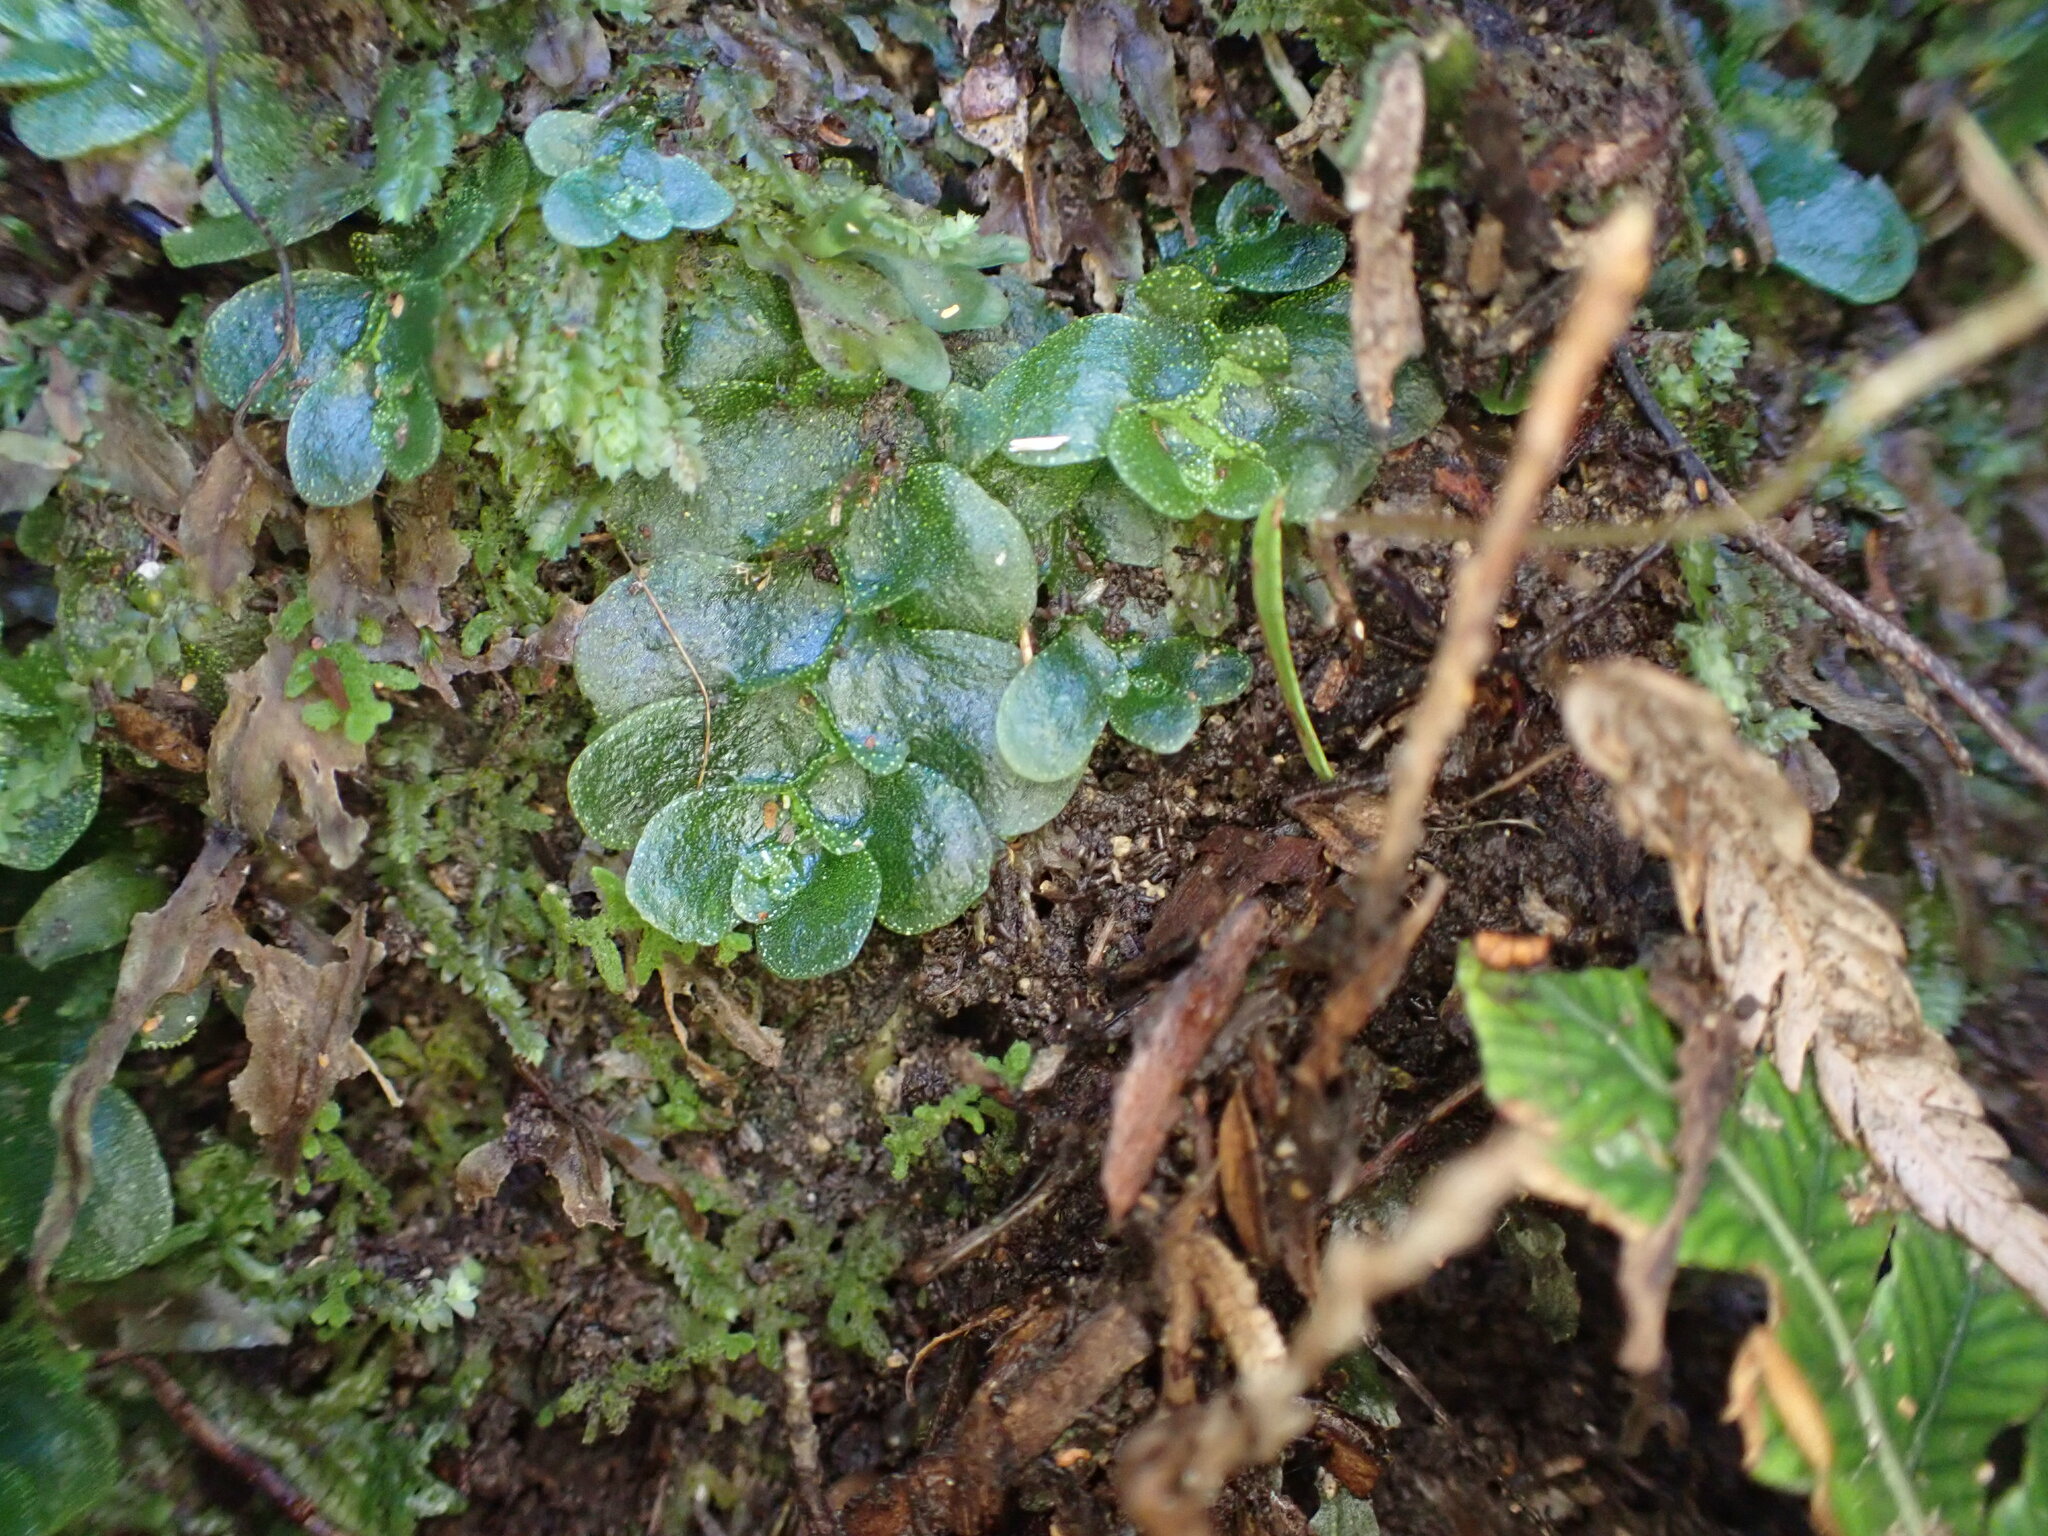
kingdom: Plantae
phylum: Marchantiophyta
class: Haplomitriopsida
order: Treubiales
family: Treubiaceae
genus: Treubia
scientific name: Treubia lacunosa
